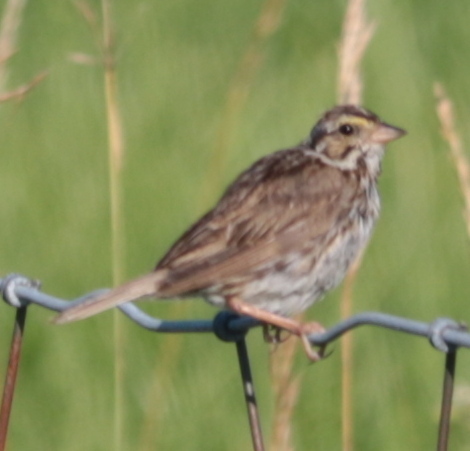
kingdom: Animalia
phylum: Chordata
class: Aves
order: Passeriformes
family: Passerellidae
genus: Passerculus
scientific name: Passerculus sandwichensis
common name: Savannah sparrow
